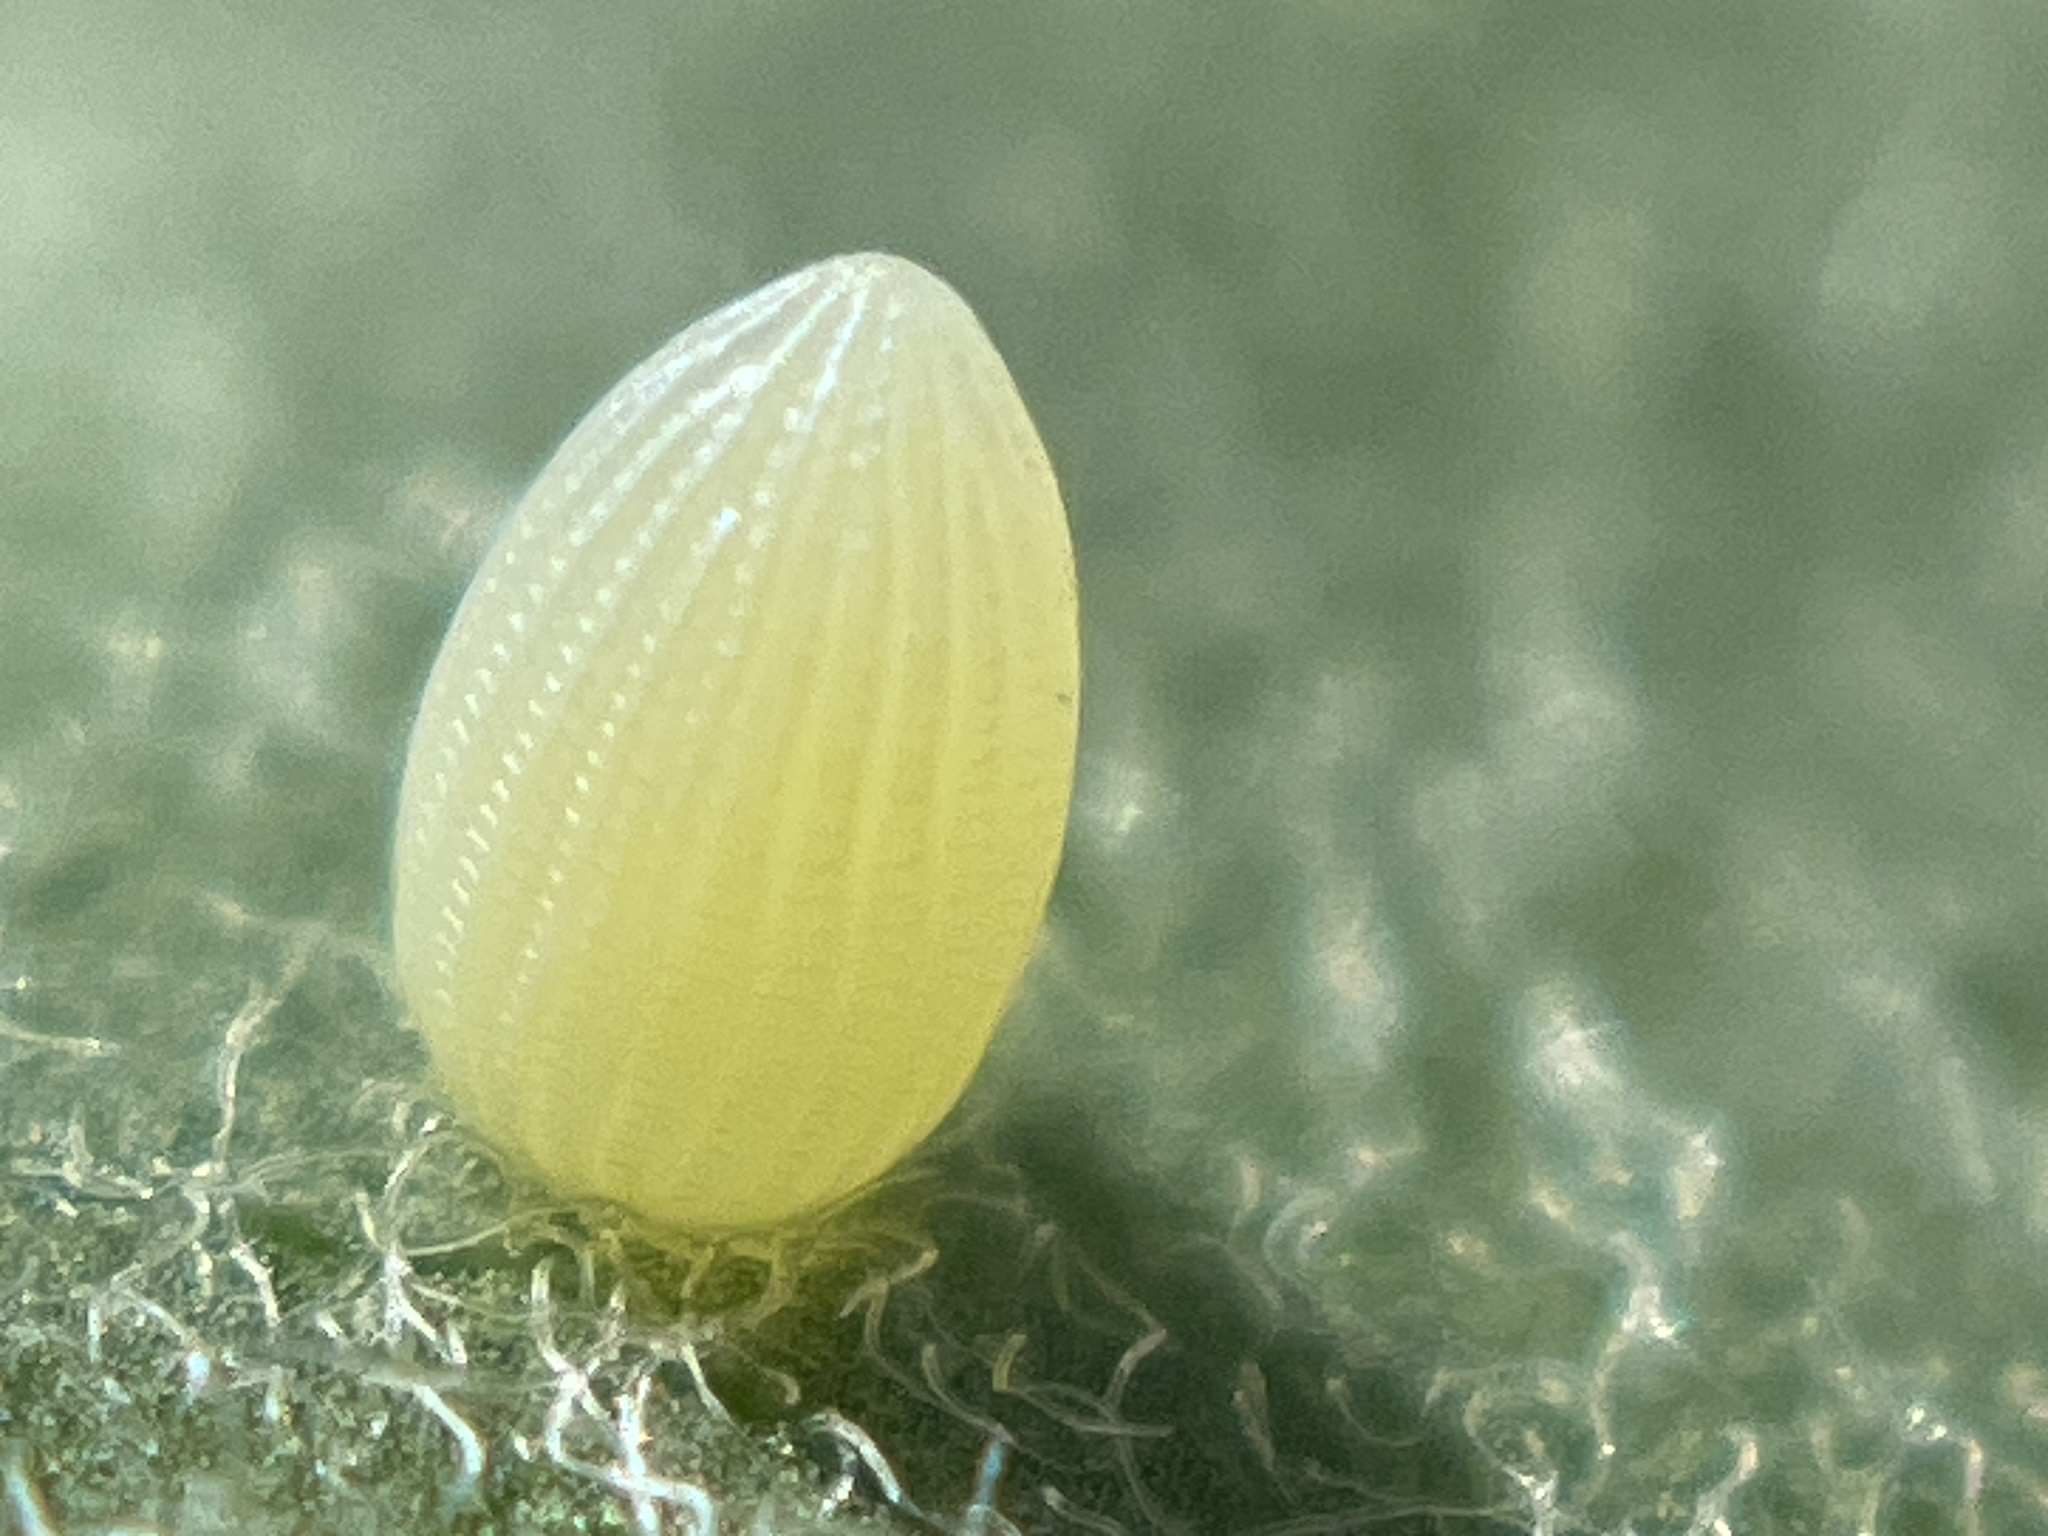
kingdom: Animalia
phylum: Arthropoda
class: Insecta
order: Lepidoptera
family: Nymphalidae
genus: Danaus
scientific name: Danaus plexippus
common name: Monarch
